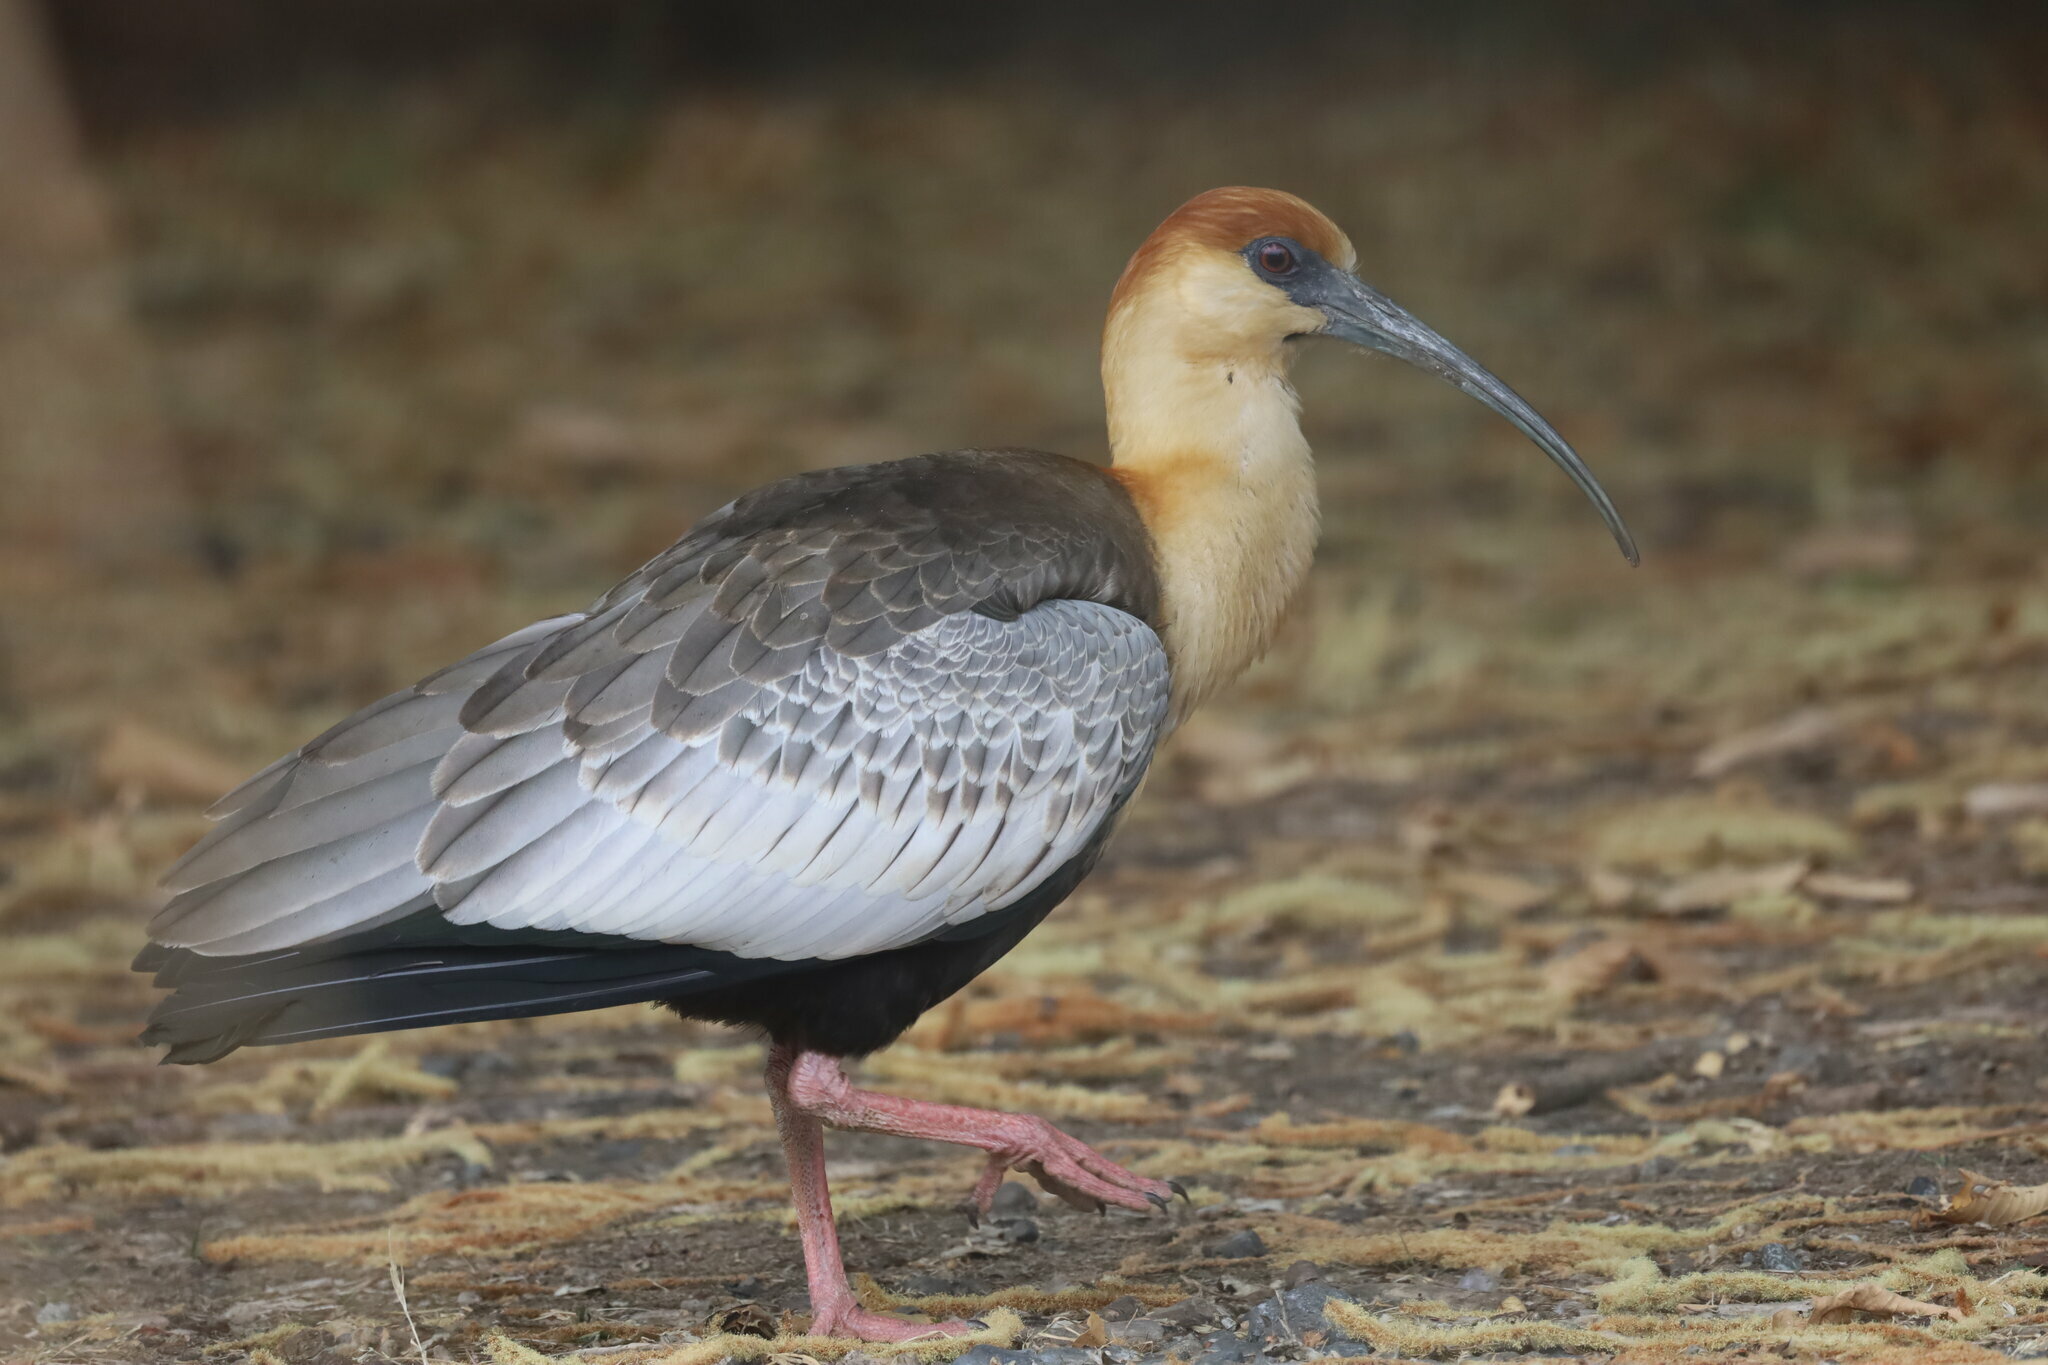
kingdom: Animalia
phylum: Chordata
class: Aves
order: Pelecaniformes
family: Threskiornithidae
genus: Theristicus
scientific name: Theristicus melanopis
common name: Black-faced ibis
